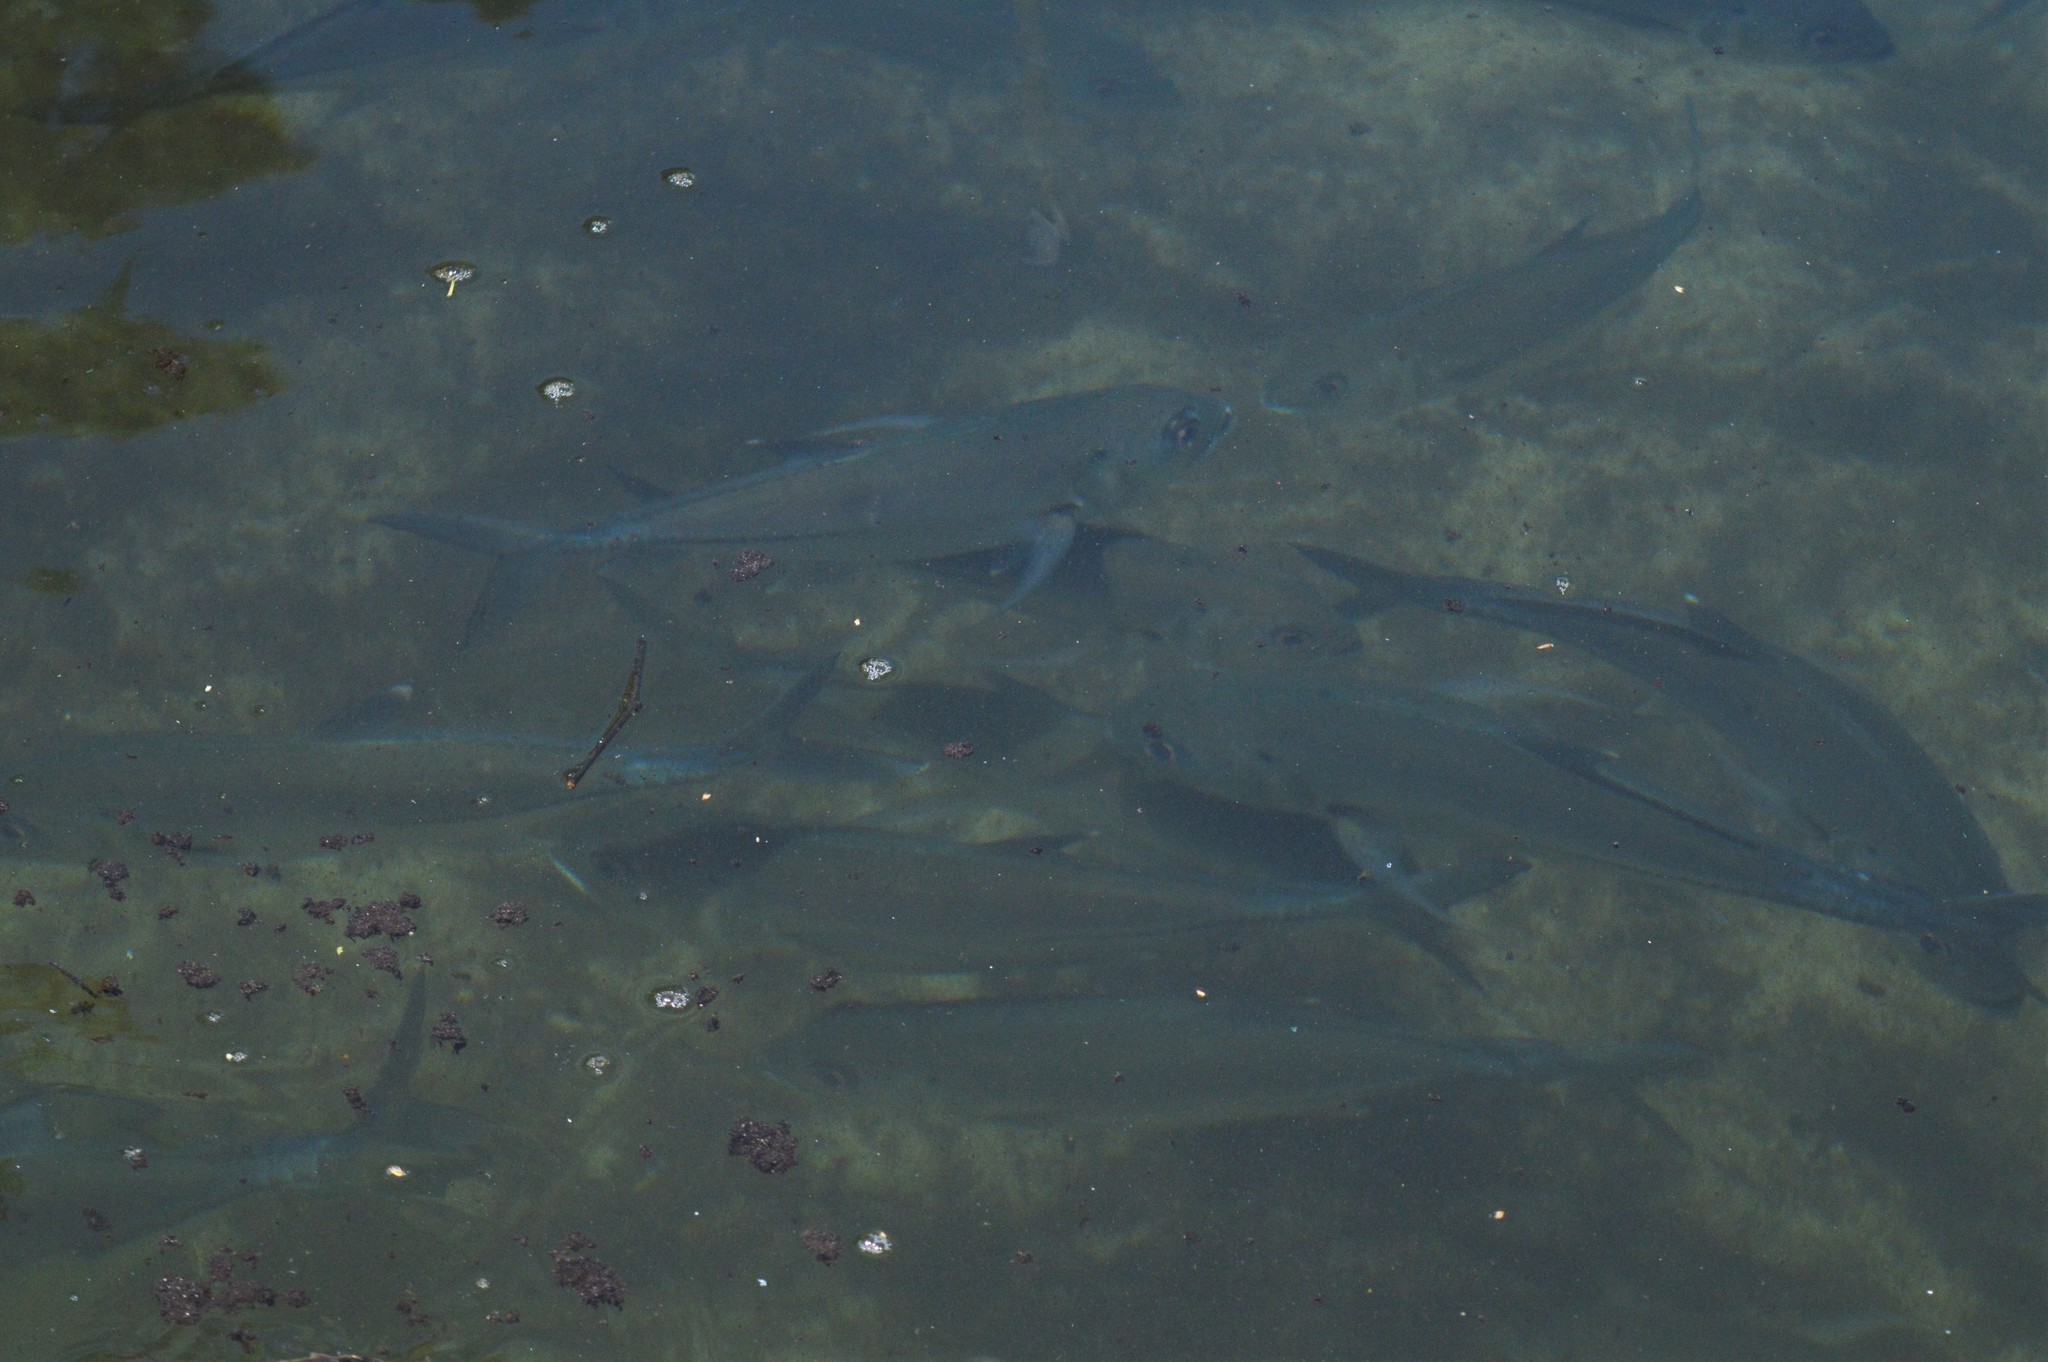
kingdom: Animalia
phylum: Chordata
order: Perciformes
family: Carangidae
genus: Caranx
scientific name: Caranx sexfasciatus
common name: Bigeye trevally
